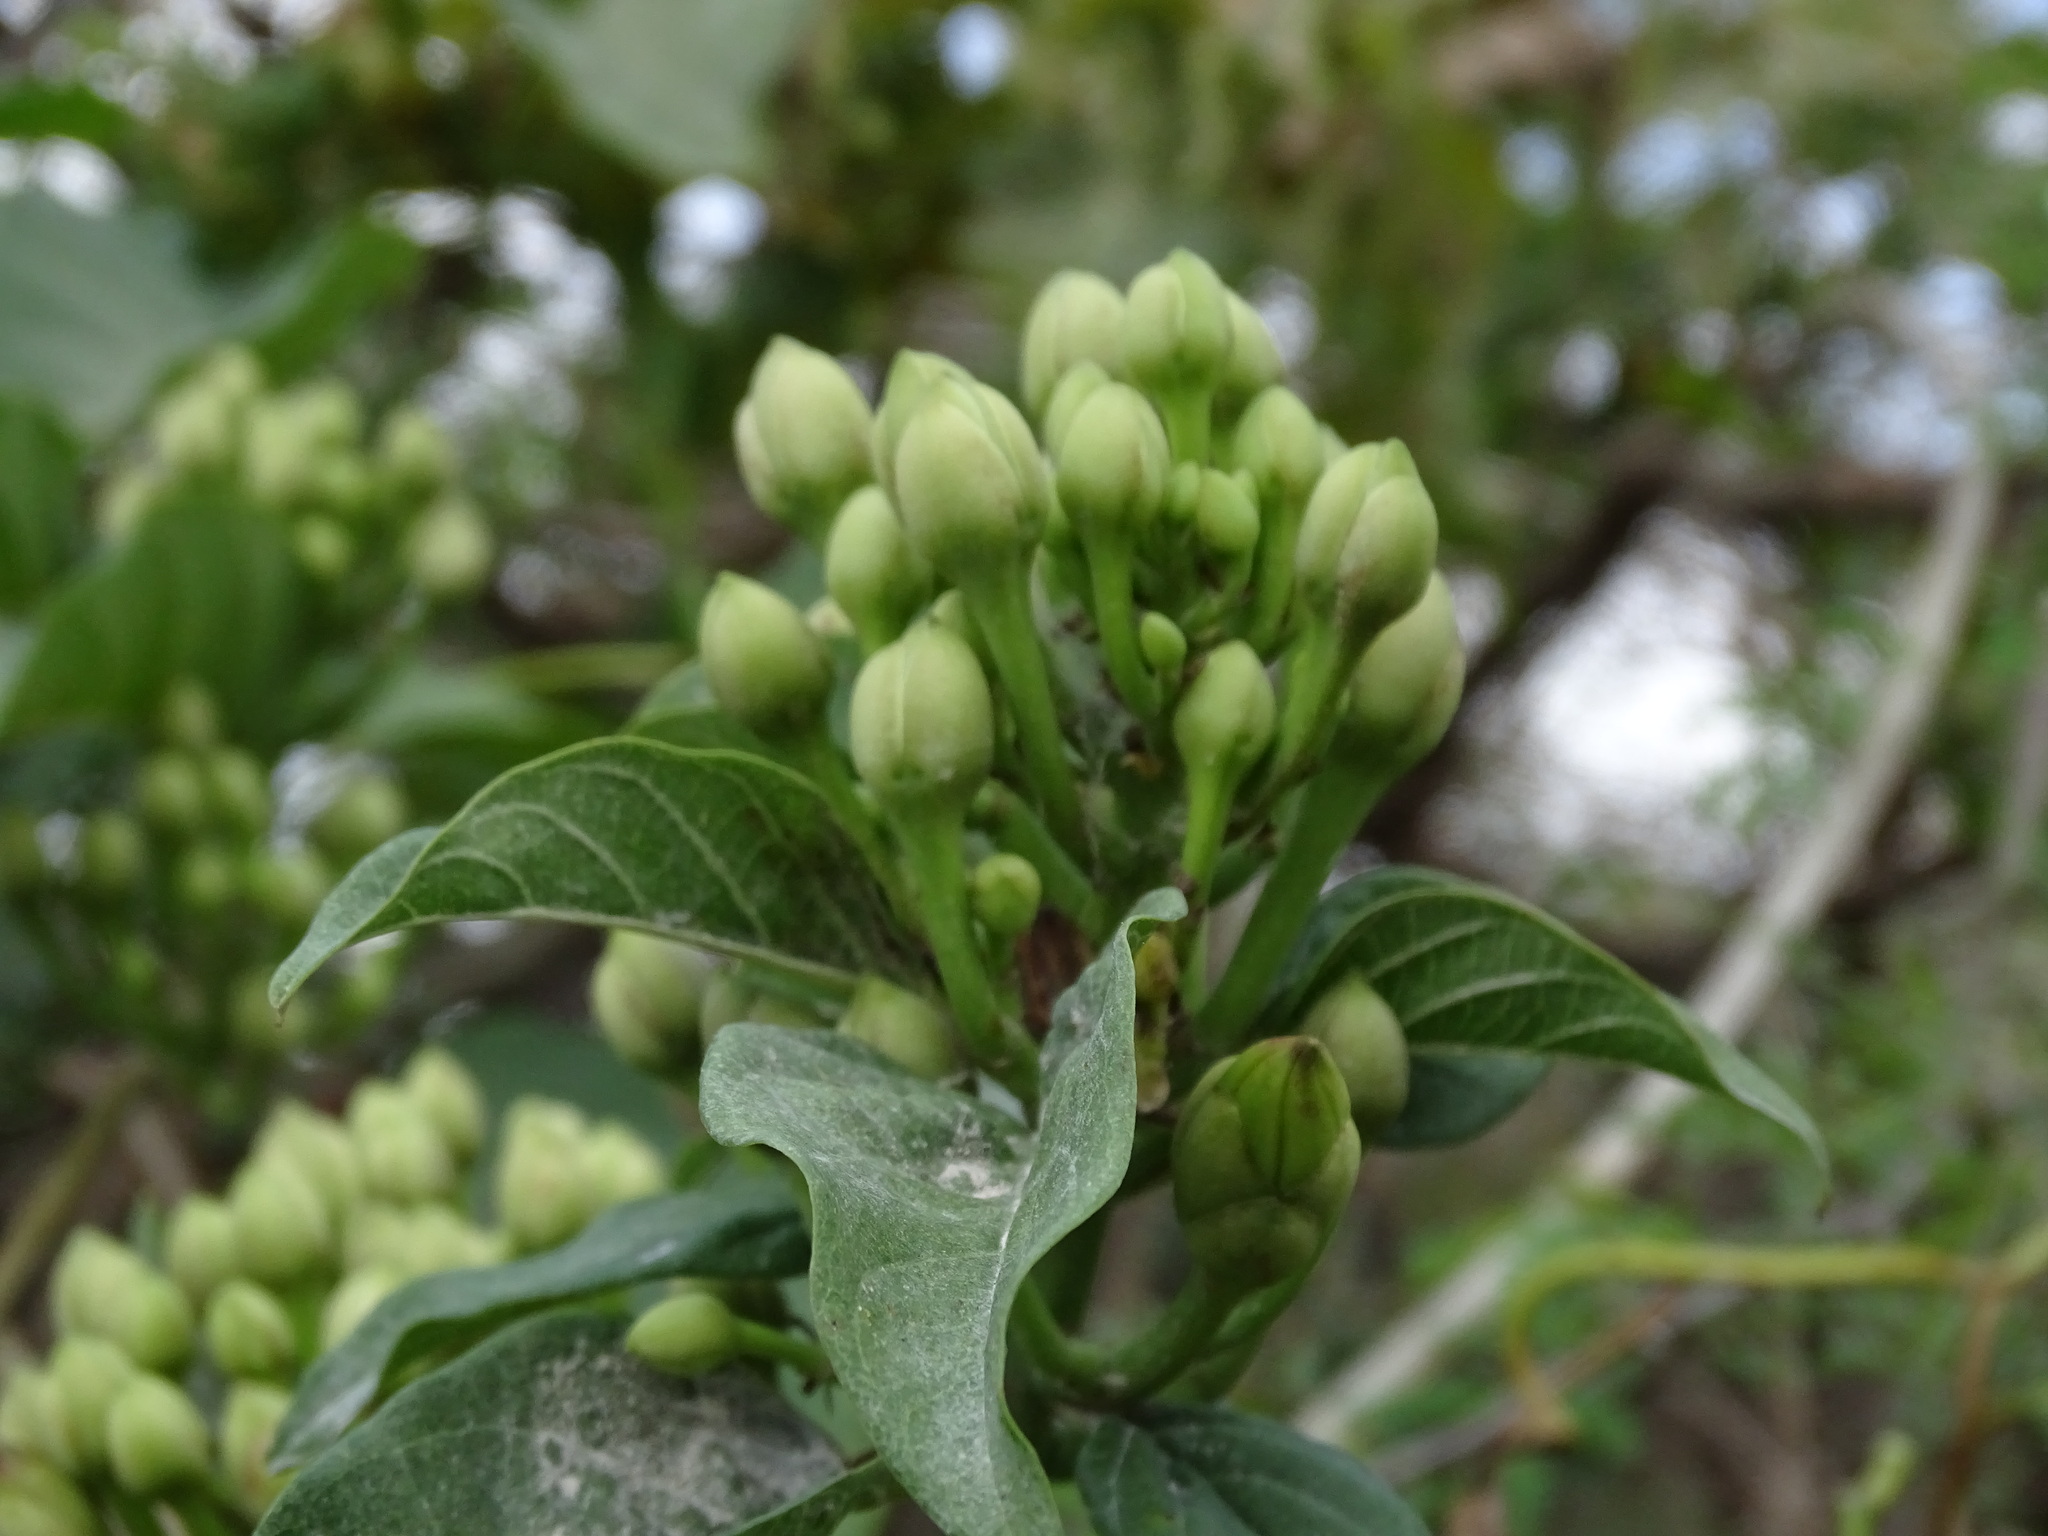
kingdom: Plantae
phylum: Tracheophyta
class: Magnoliopsida
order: Solanales
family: Convolvulaceae
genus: Ipomoea
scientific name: Ipomoea populina
